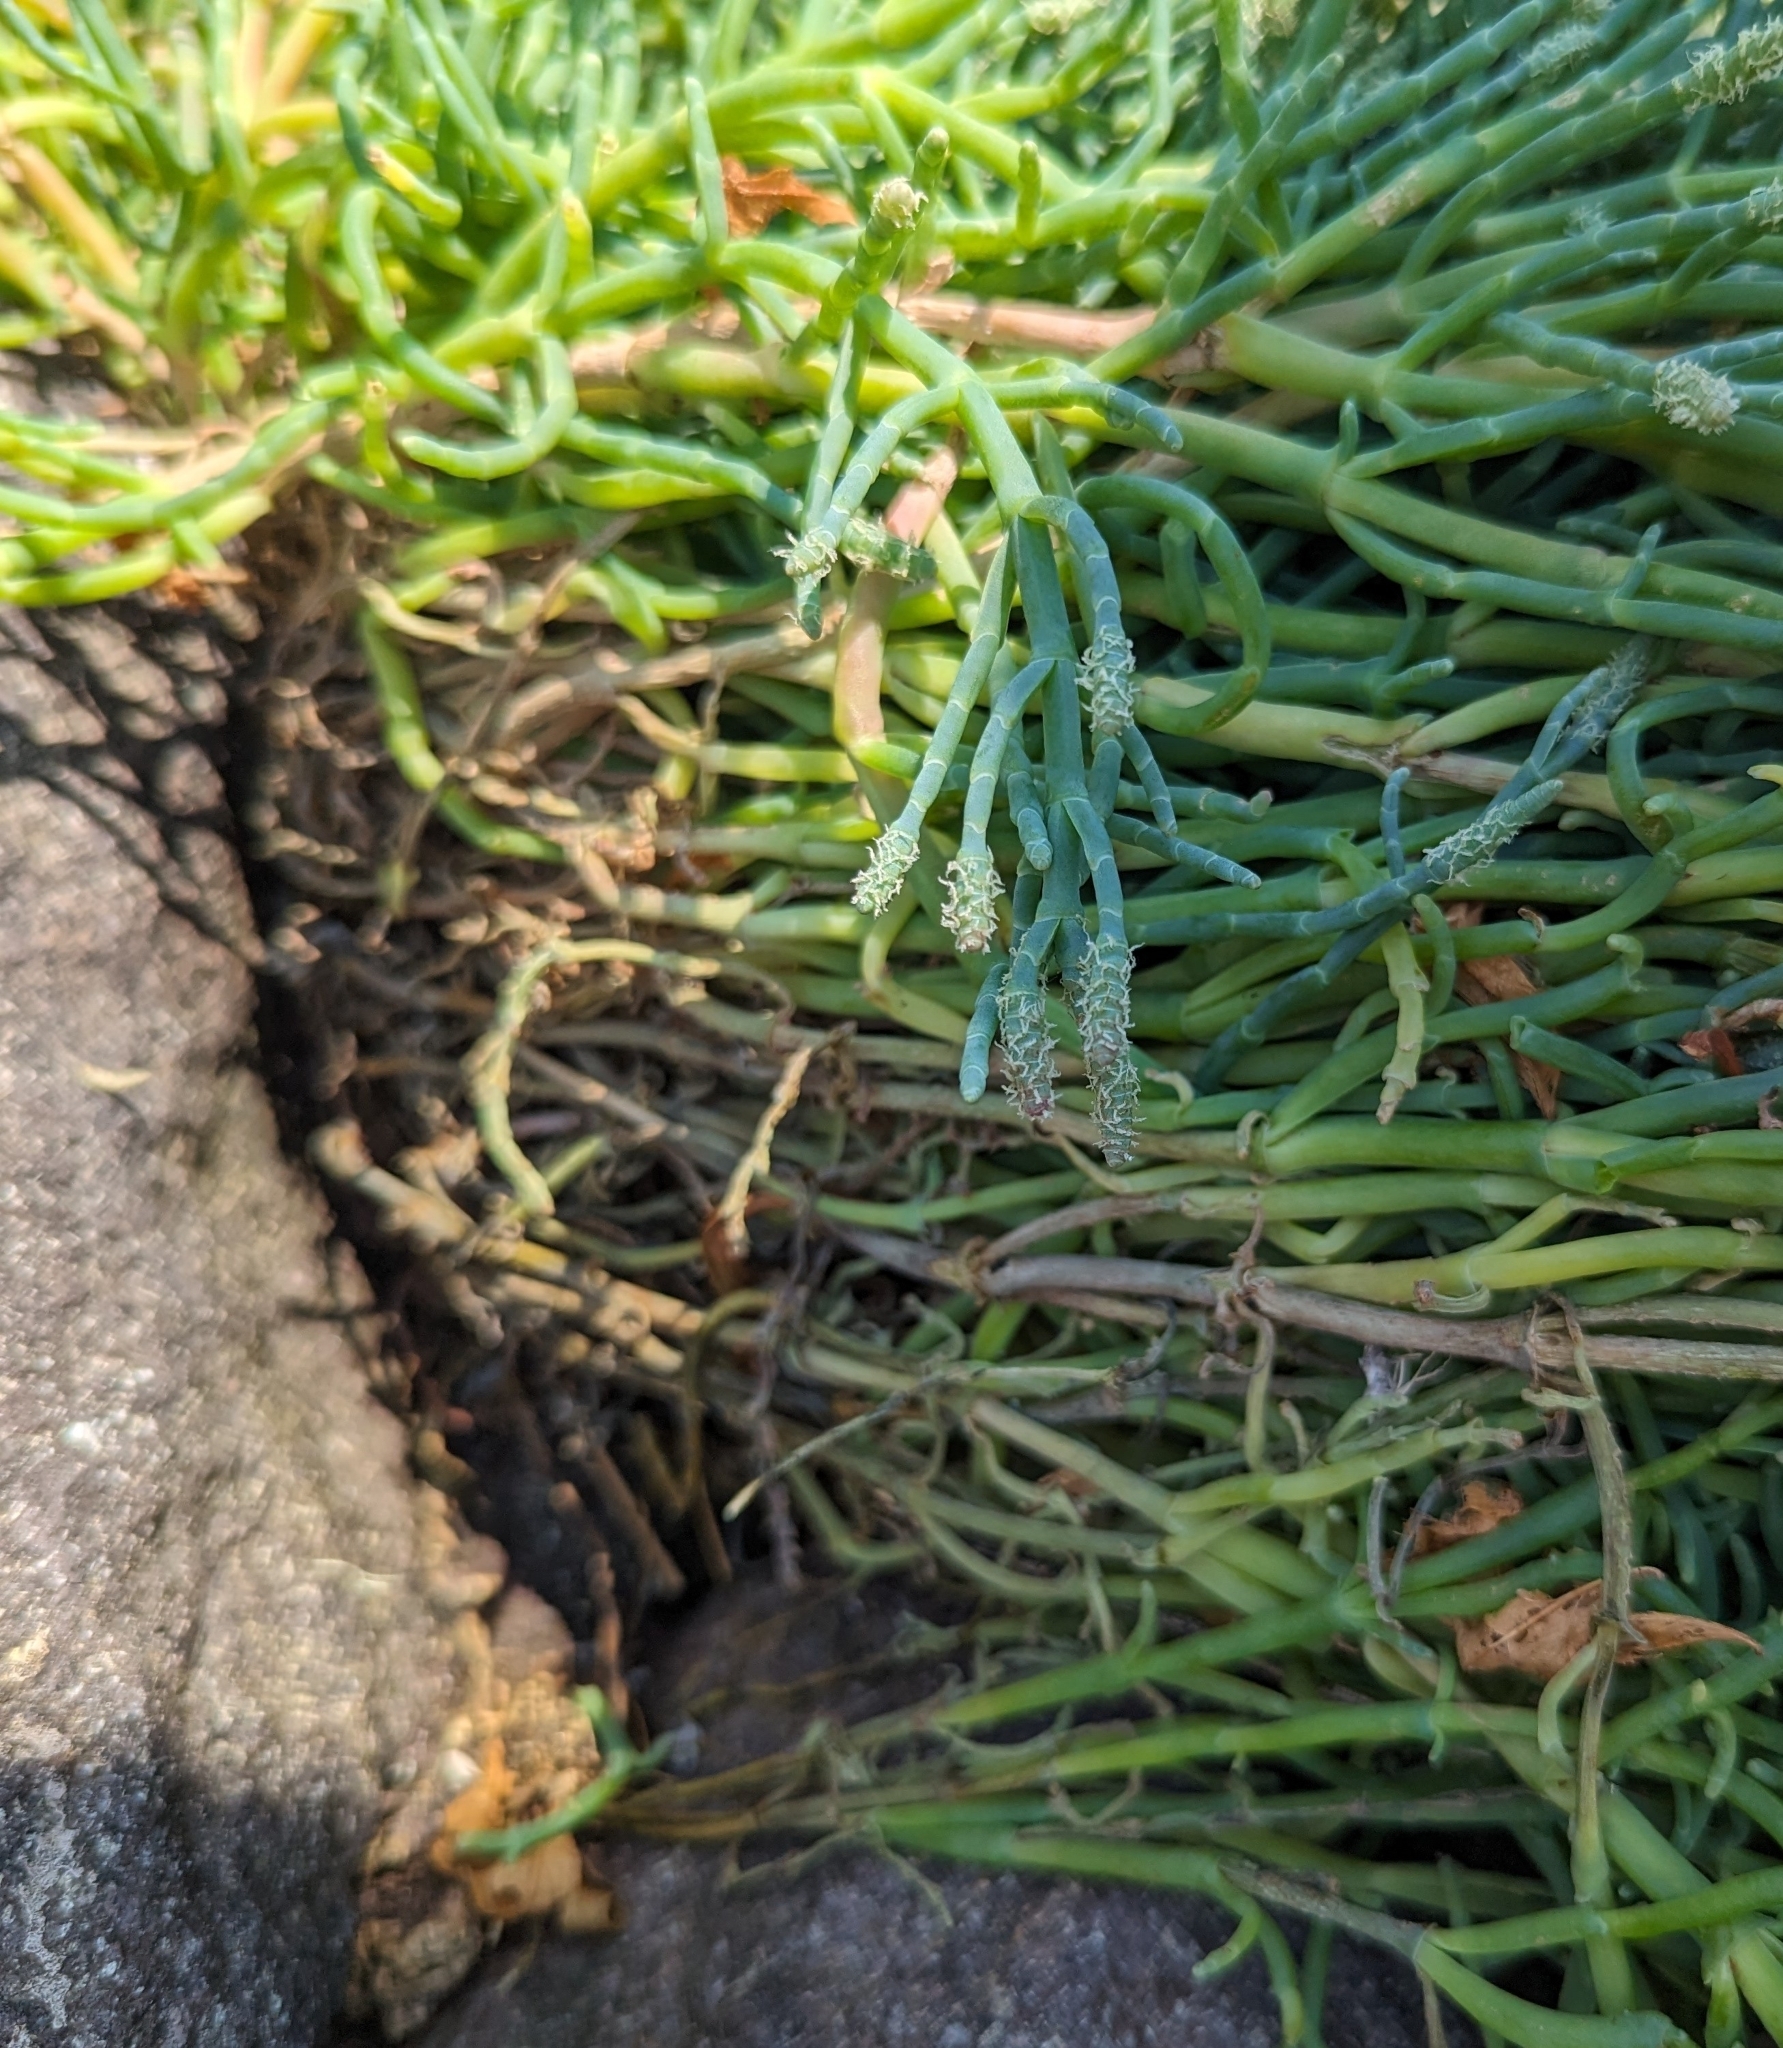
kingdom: Plantae
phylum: Tracheophyta
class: Magnoliopsida
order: Caryophyllales
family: Amaranthaceae
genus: Salicornia
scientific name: Salicornia pacifica
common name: Pacific glasswort
